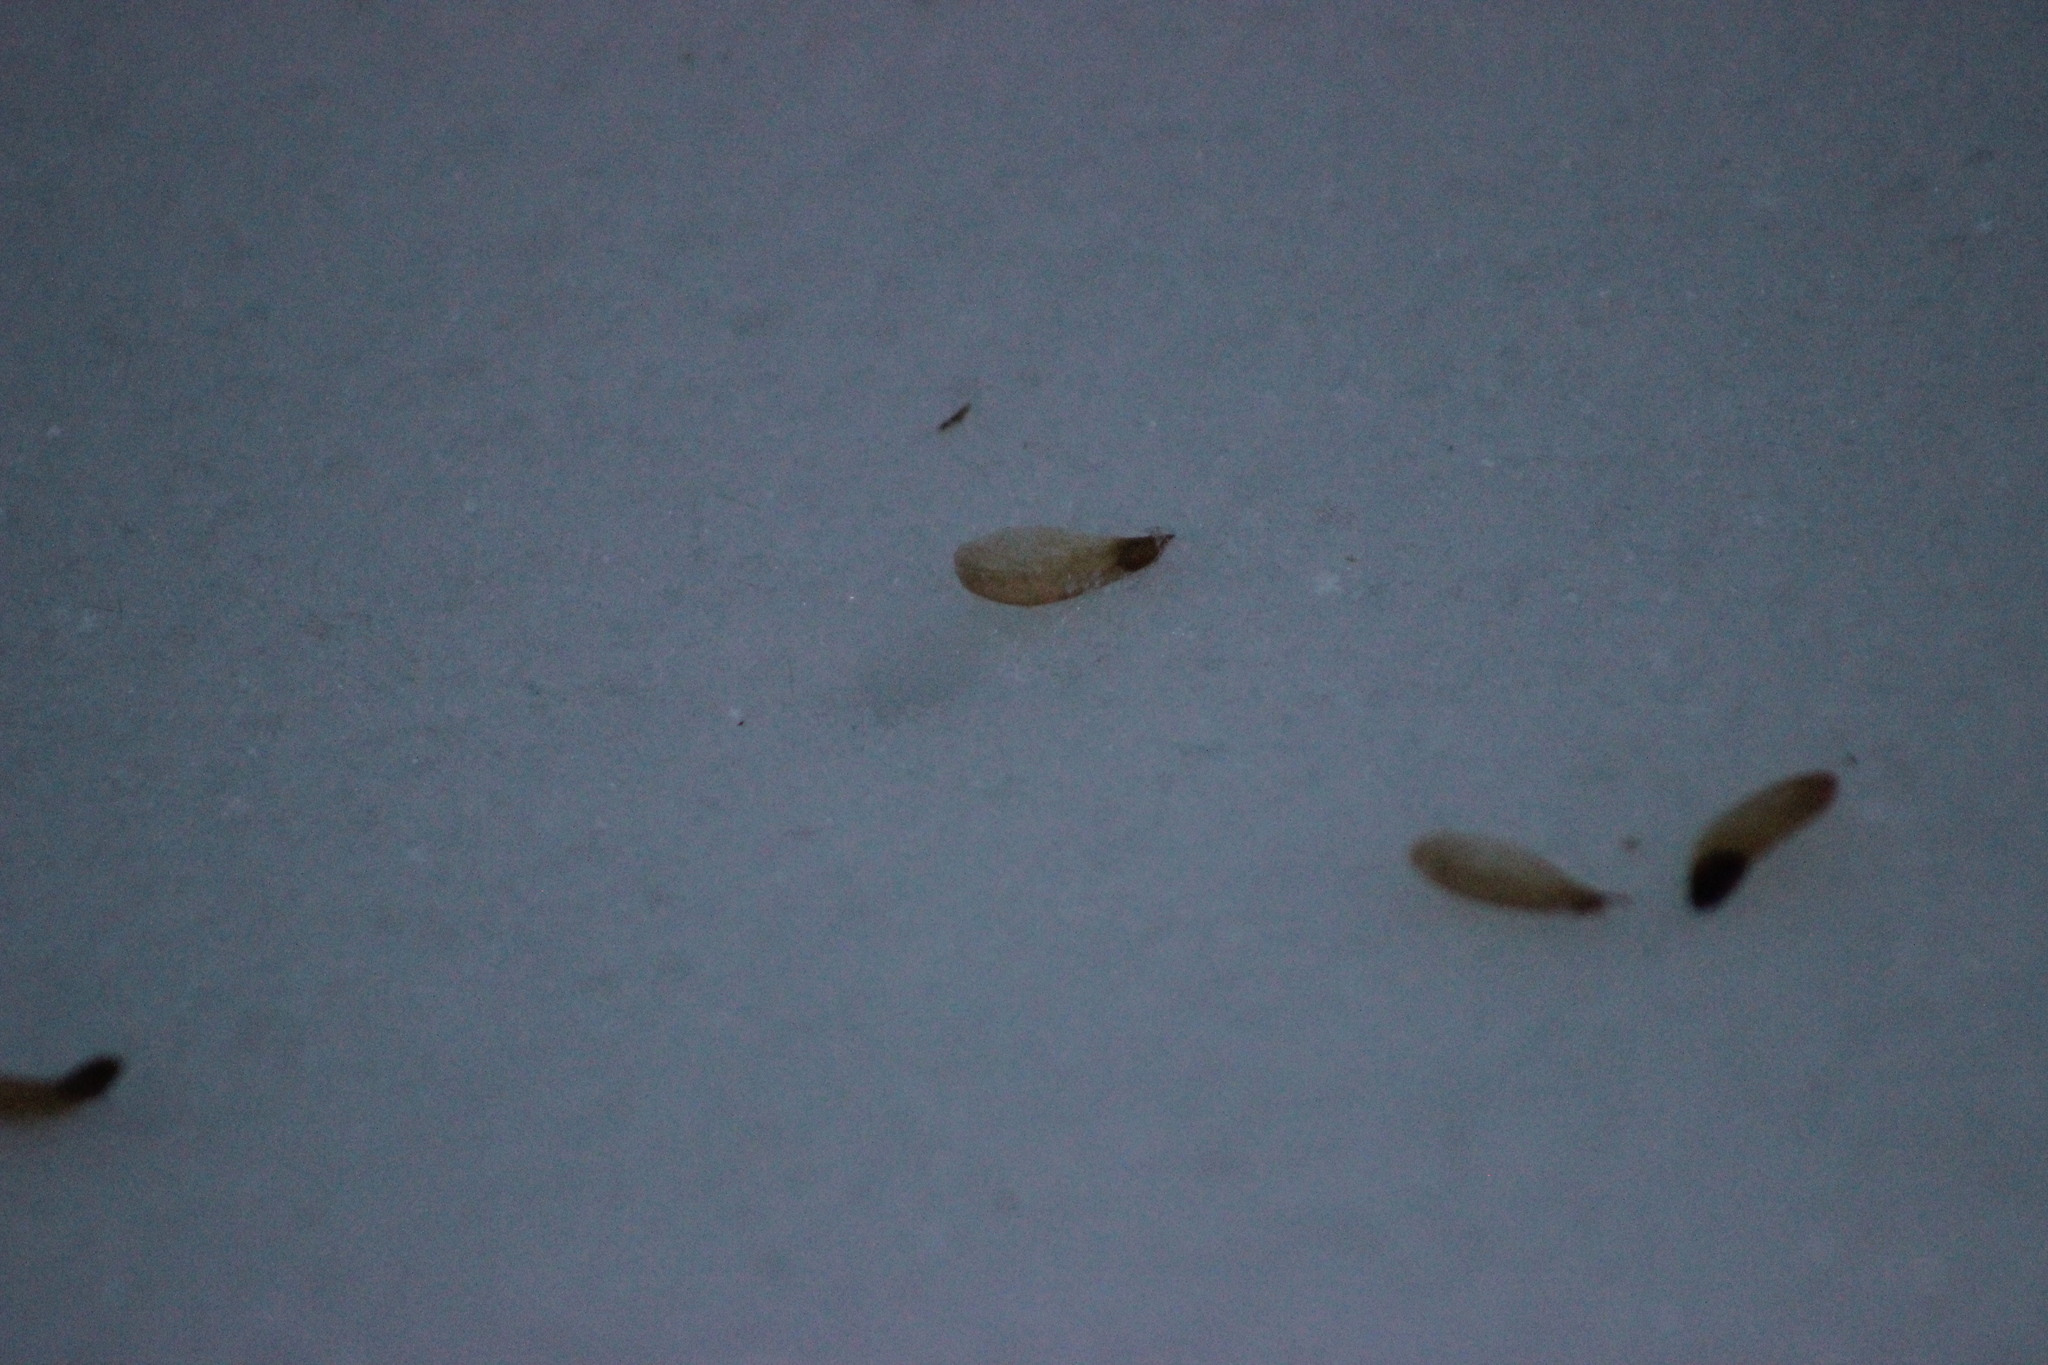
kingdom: Plantae
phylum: Tracheophyta
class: Pinopsida
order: Pinales
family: Pinaceae
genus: Picea
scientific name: Picea obovata
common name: Siberian spruce
